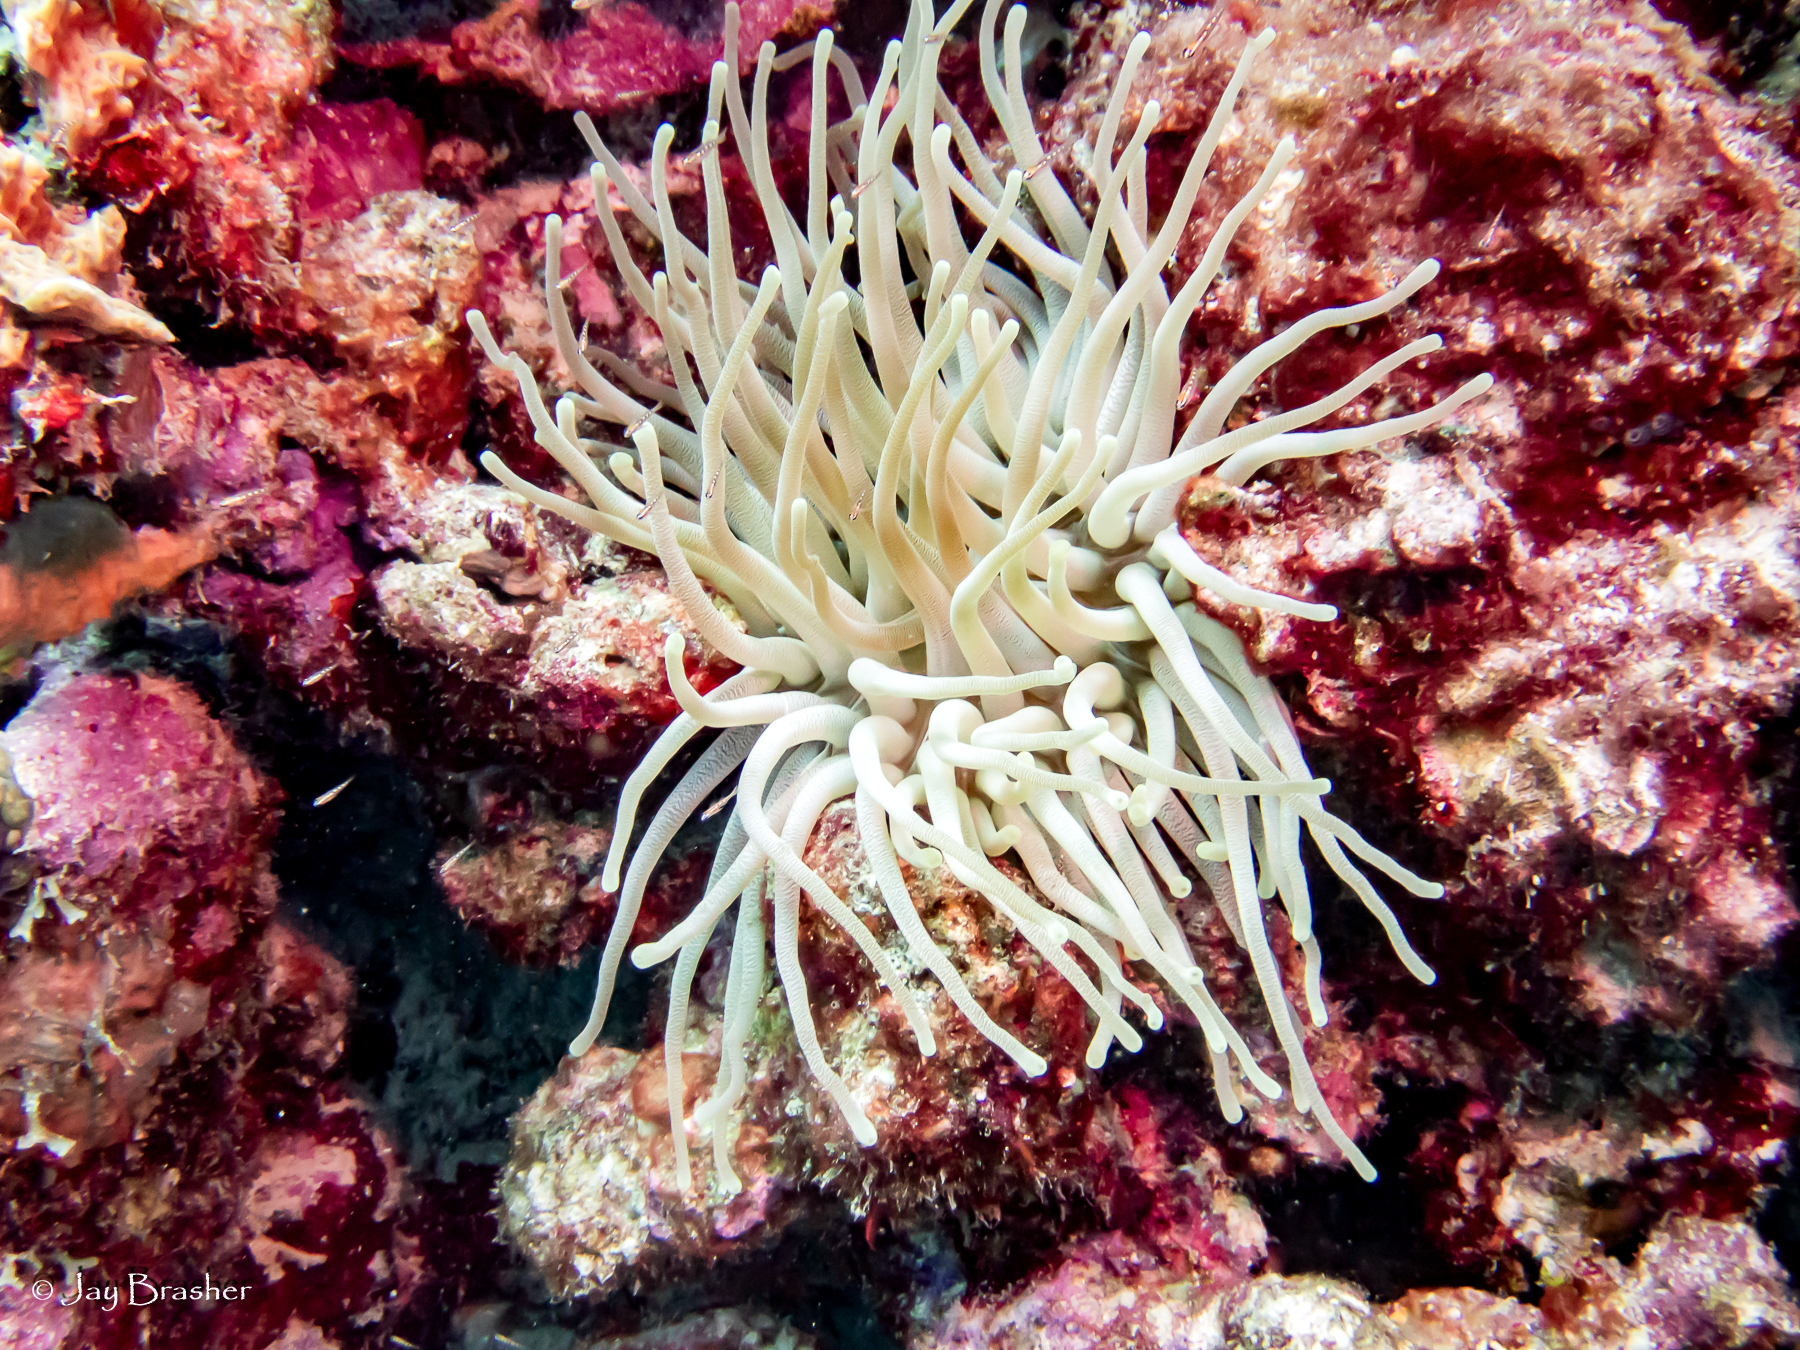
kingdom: Animalia
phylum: Cnidaria
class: Anthozoa
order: Actiniaria
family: Actiniidae
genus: Condylactis
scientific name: Condylactis gigantea
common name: Giant caribbean anemone
